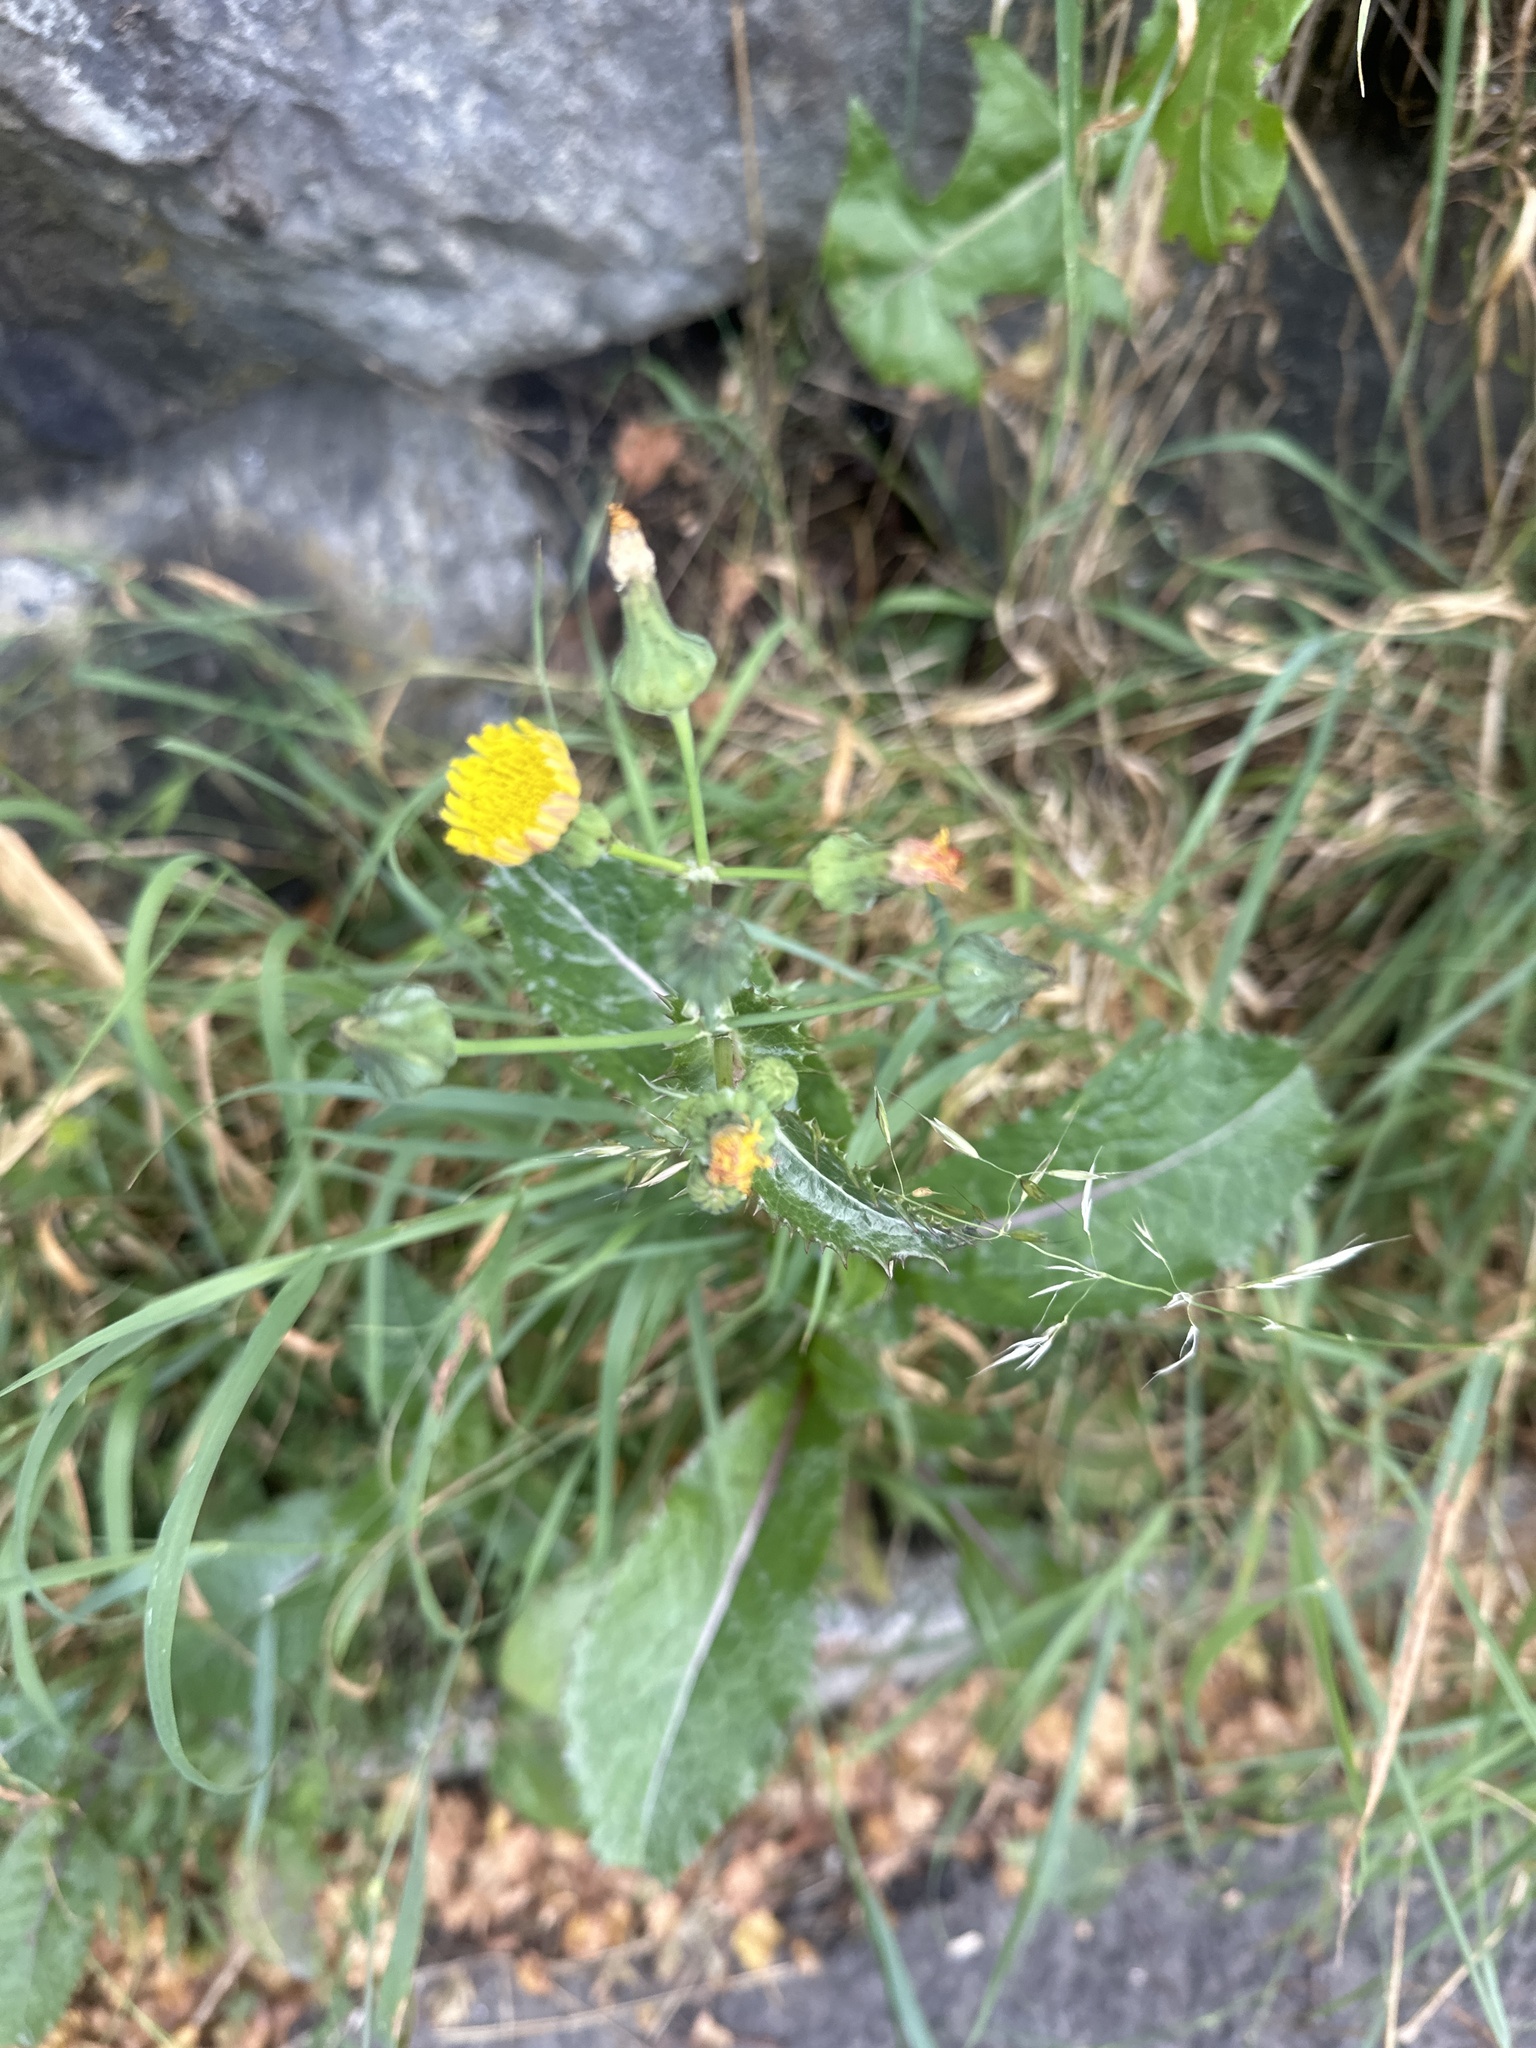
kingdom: Plantae
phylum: Tracheophyta
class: Magnoliopsida
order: Asterales
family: Asteraceae
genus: Sonchus
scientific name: Sonchus asper
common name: Prickly sow-thistle
